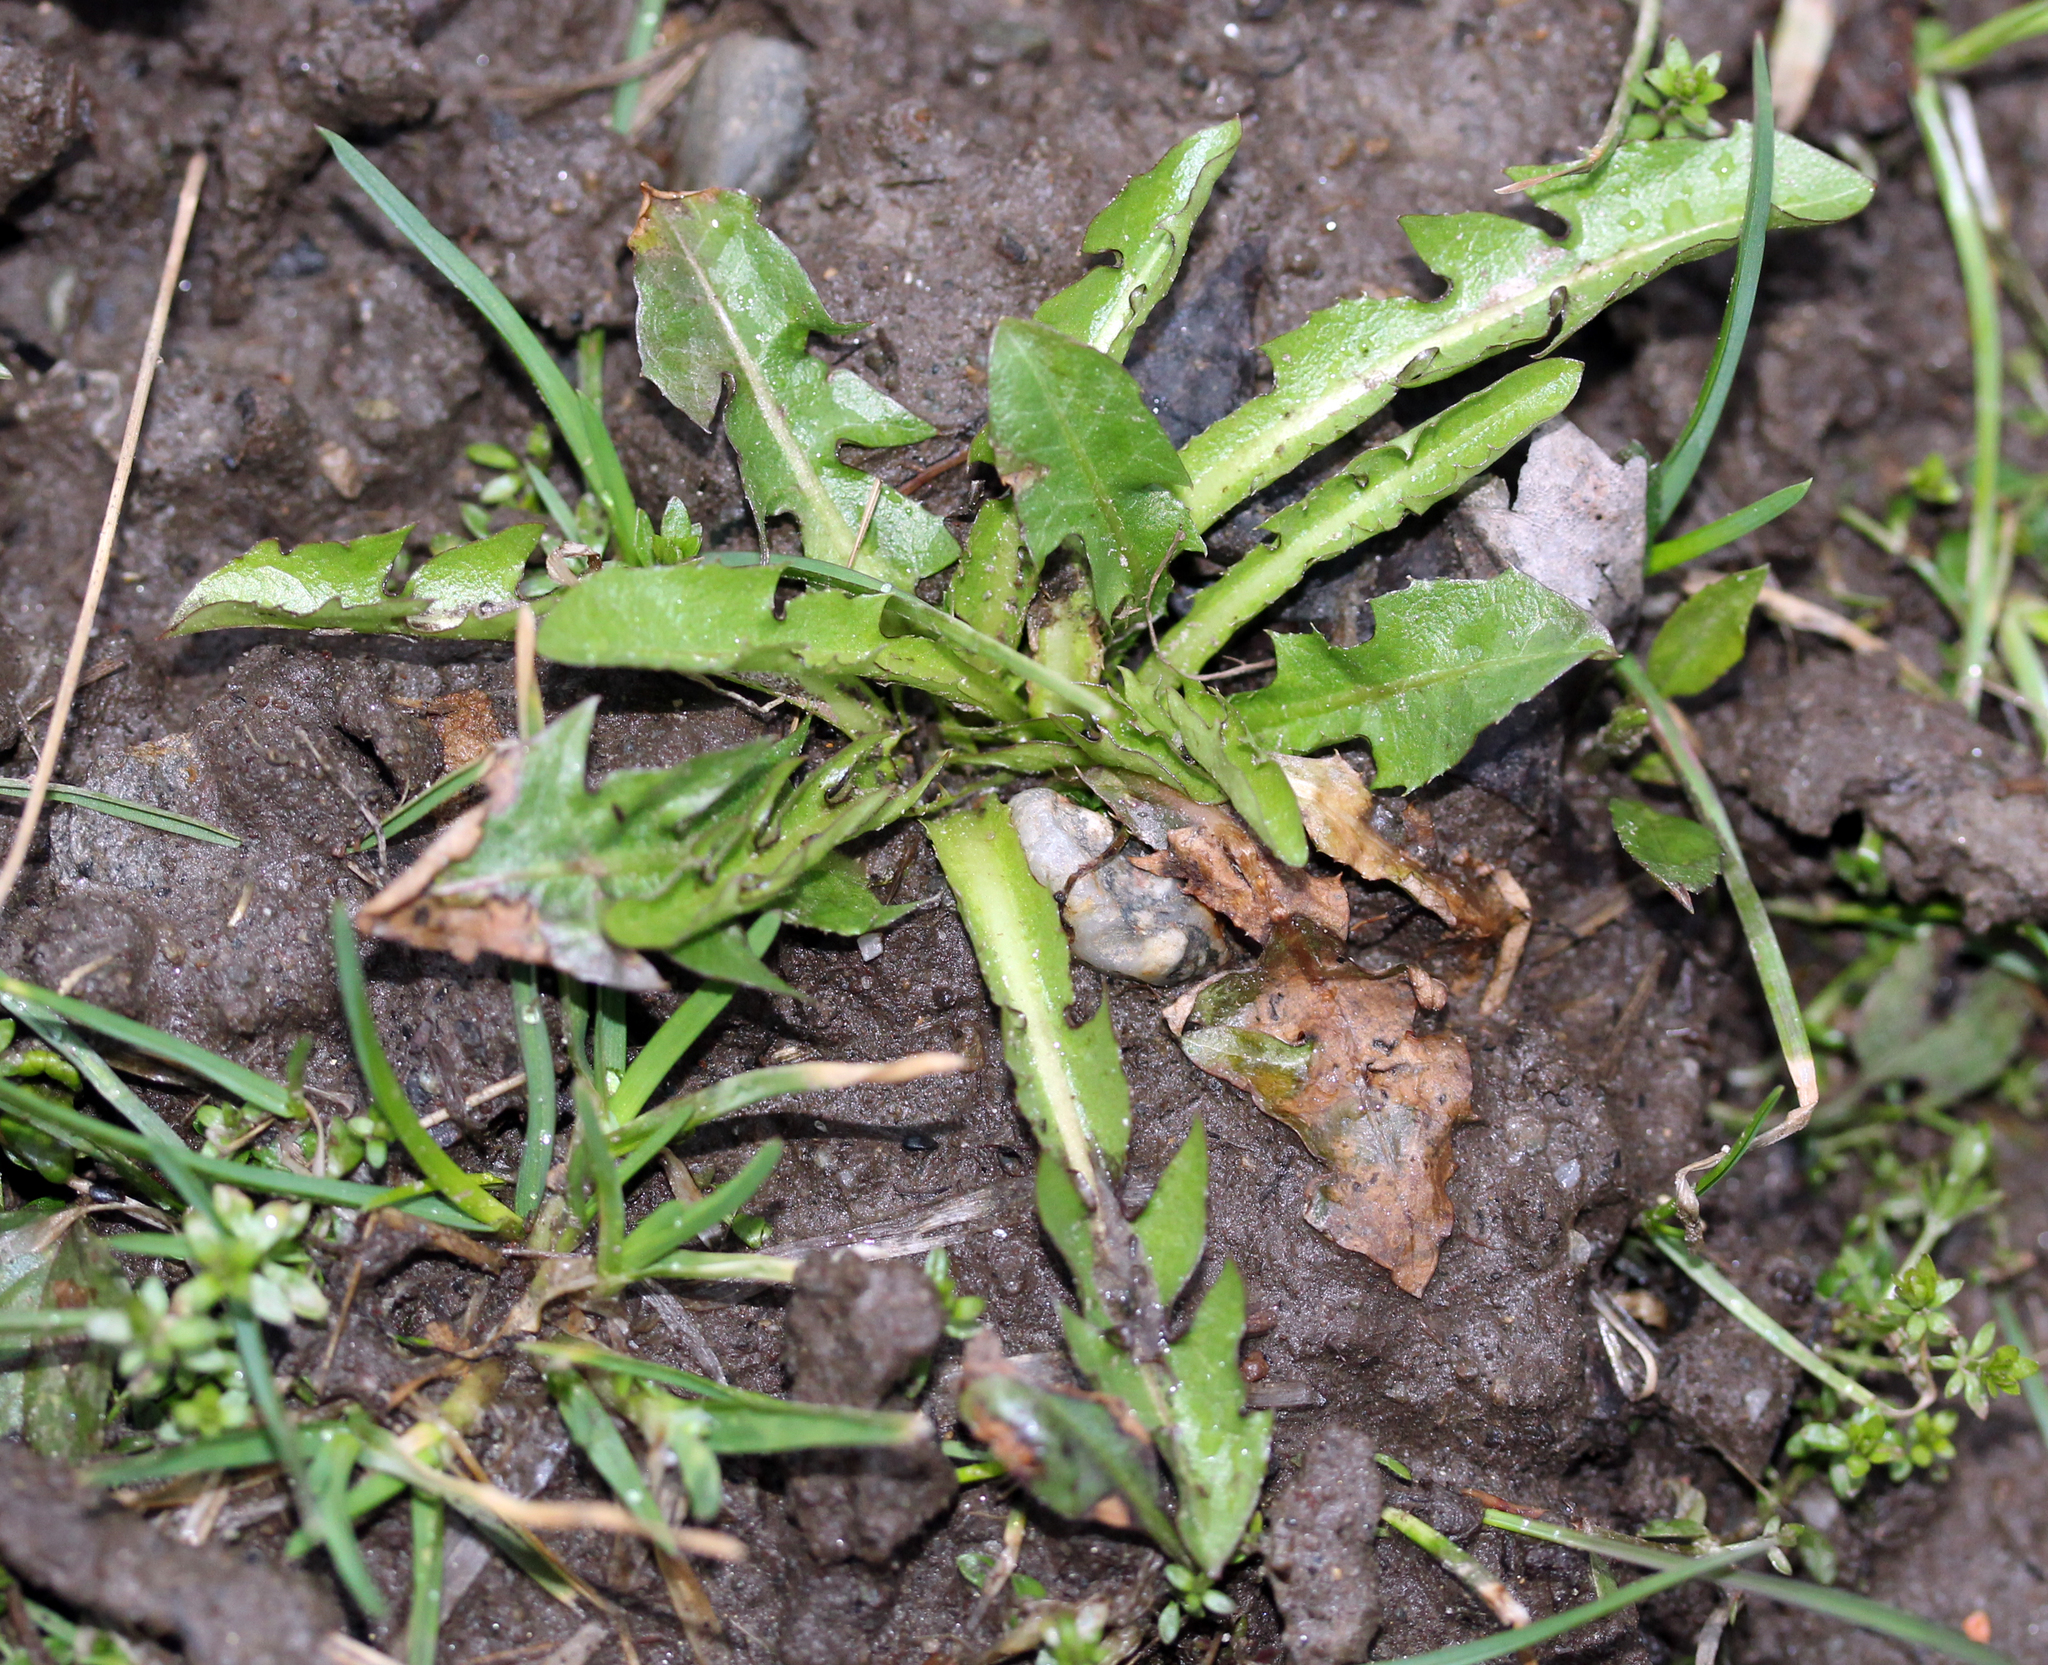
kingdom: Plantae
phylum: Tracheophyta
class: Magnoliopsida
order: Asterales
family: Asteraceae
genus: Taraxacum
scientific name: Taraxacum officinale
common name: Common dandelion
